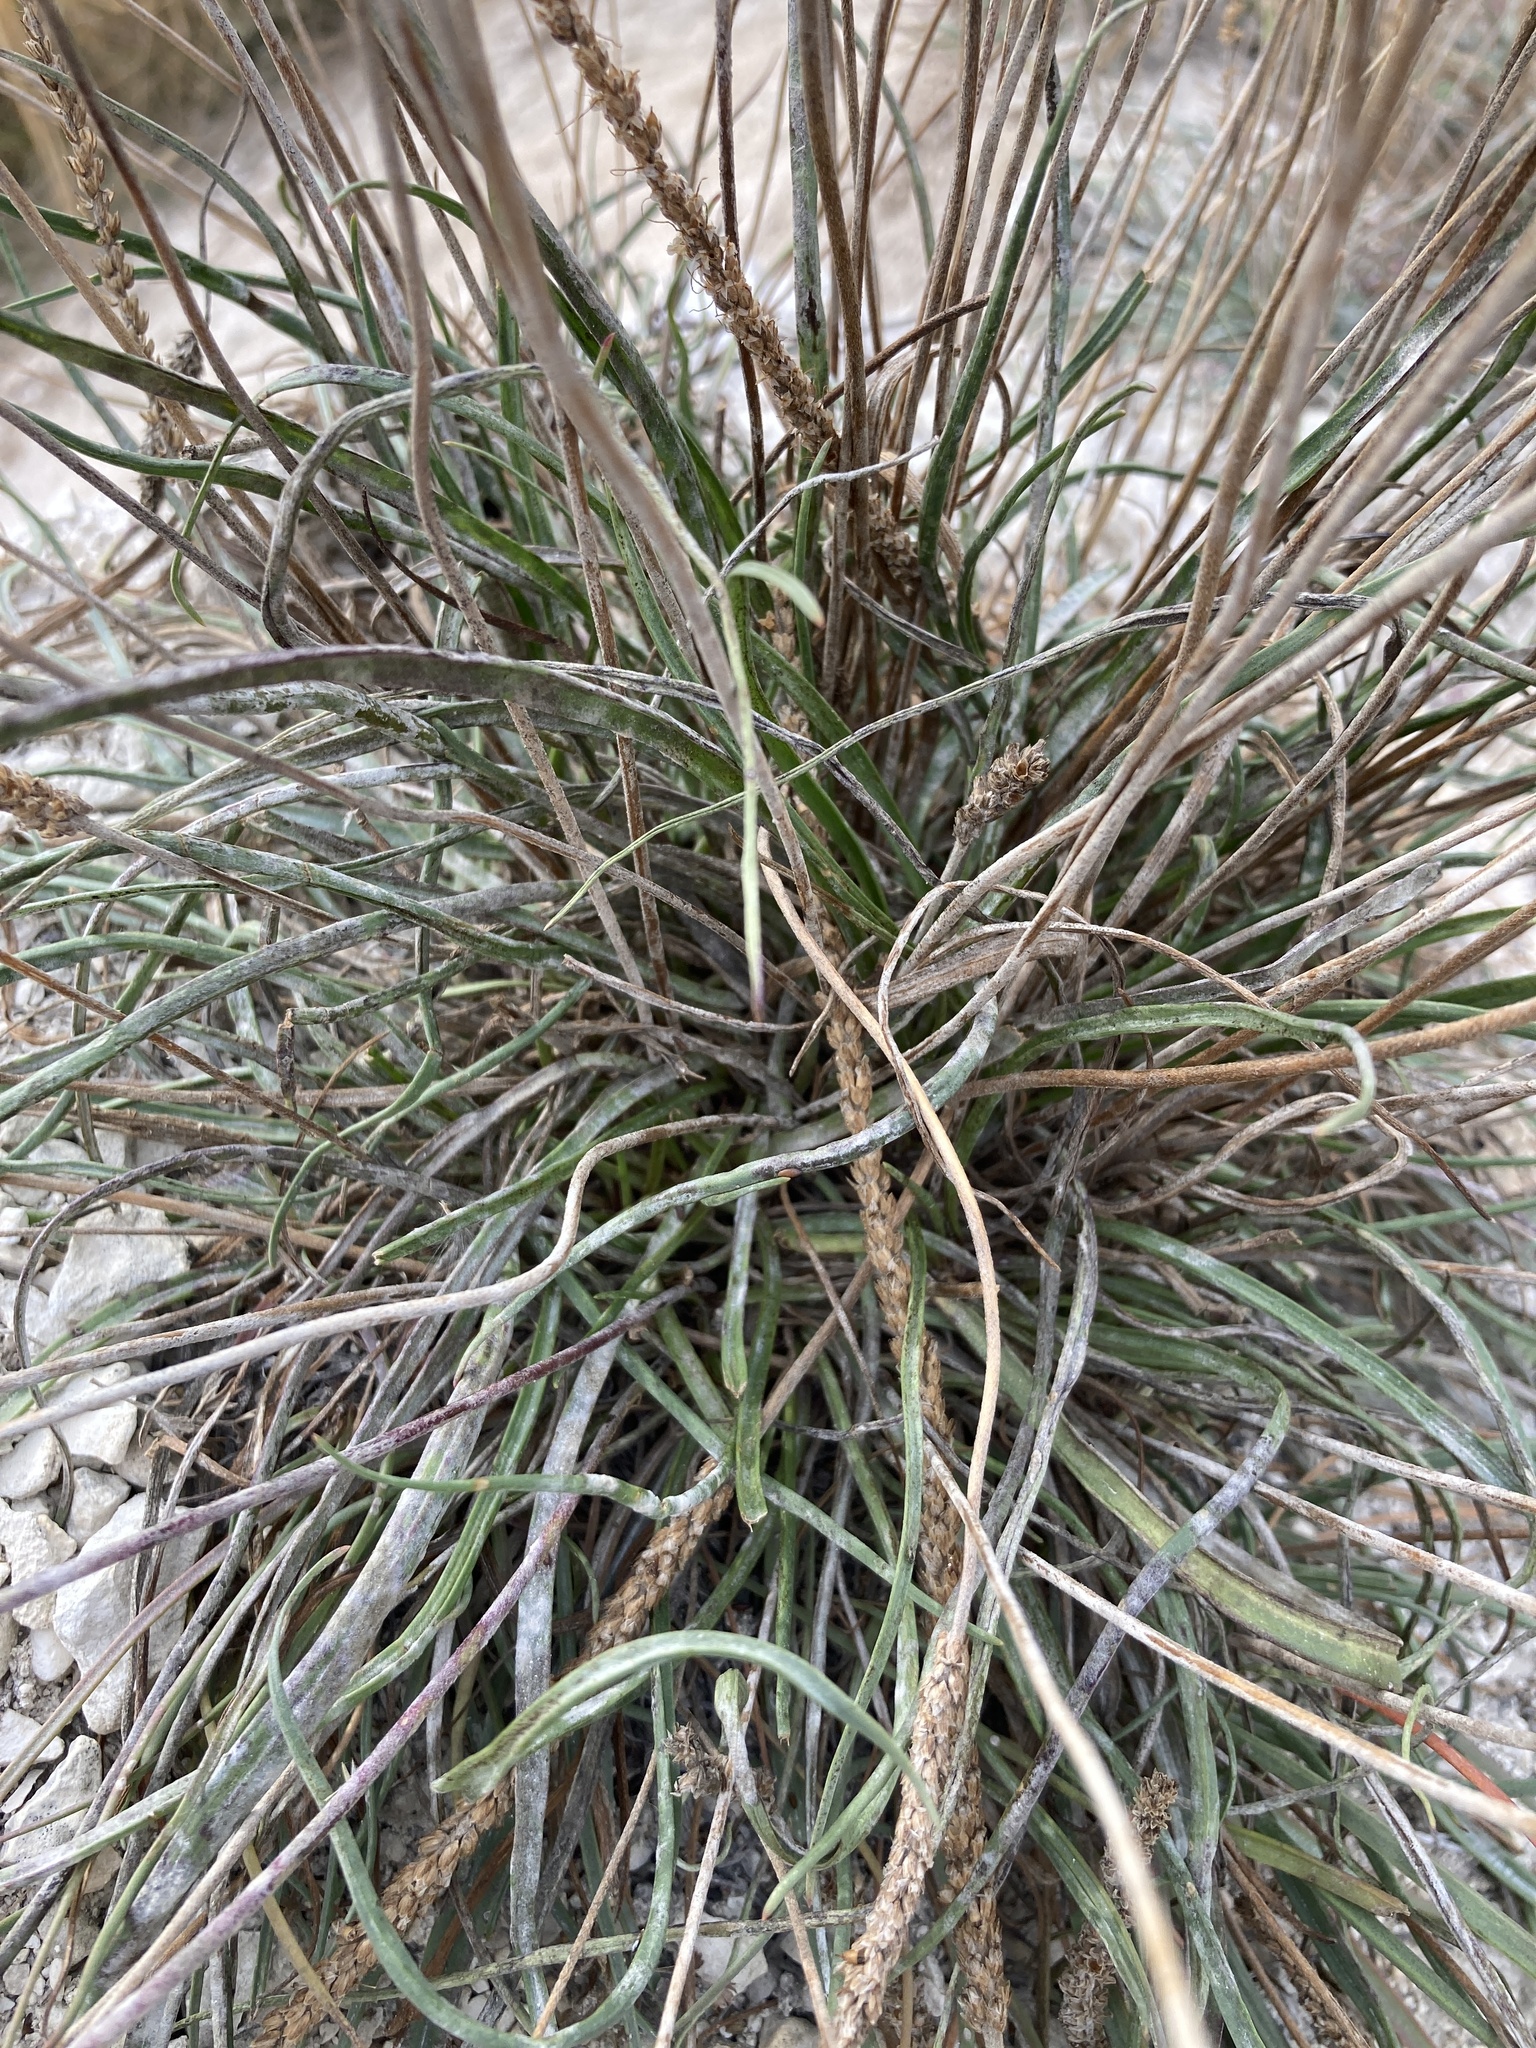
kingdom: Plantae
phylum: Tracheophyta
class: Magnoliopsida
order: Lamiales
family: Plantaginaceae
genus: Plantago
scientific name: Plantago salsa
